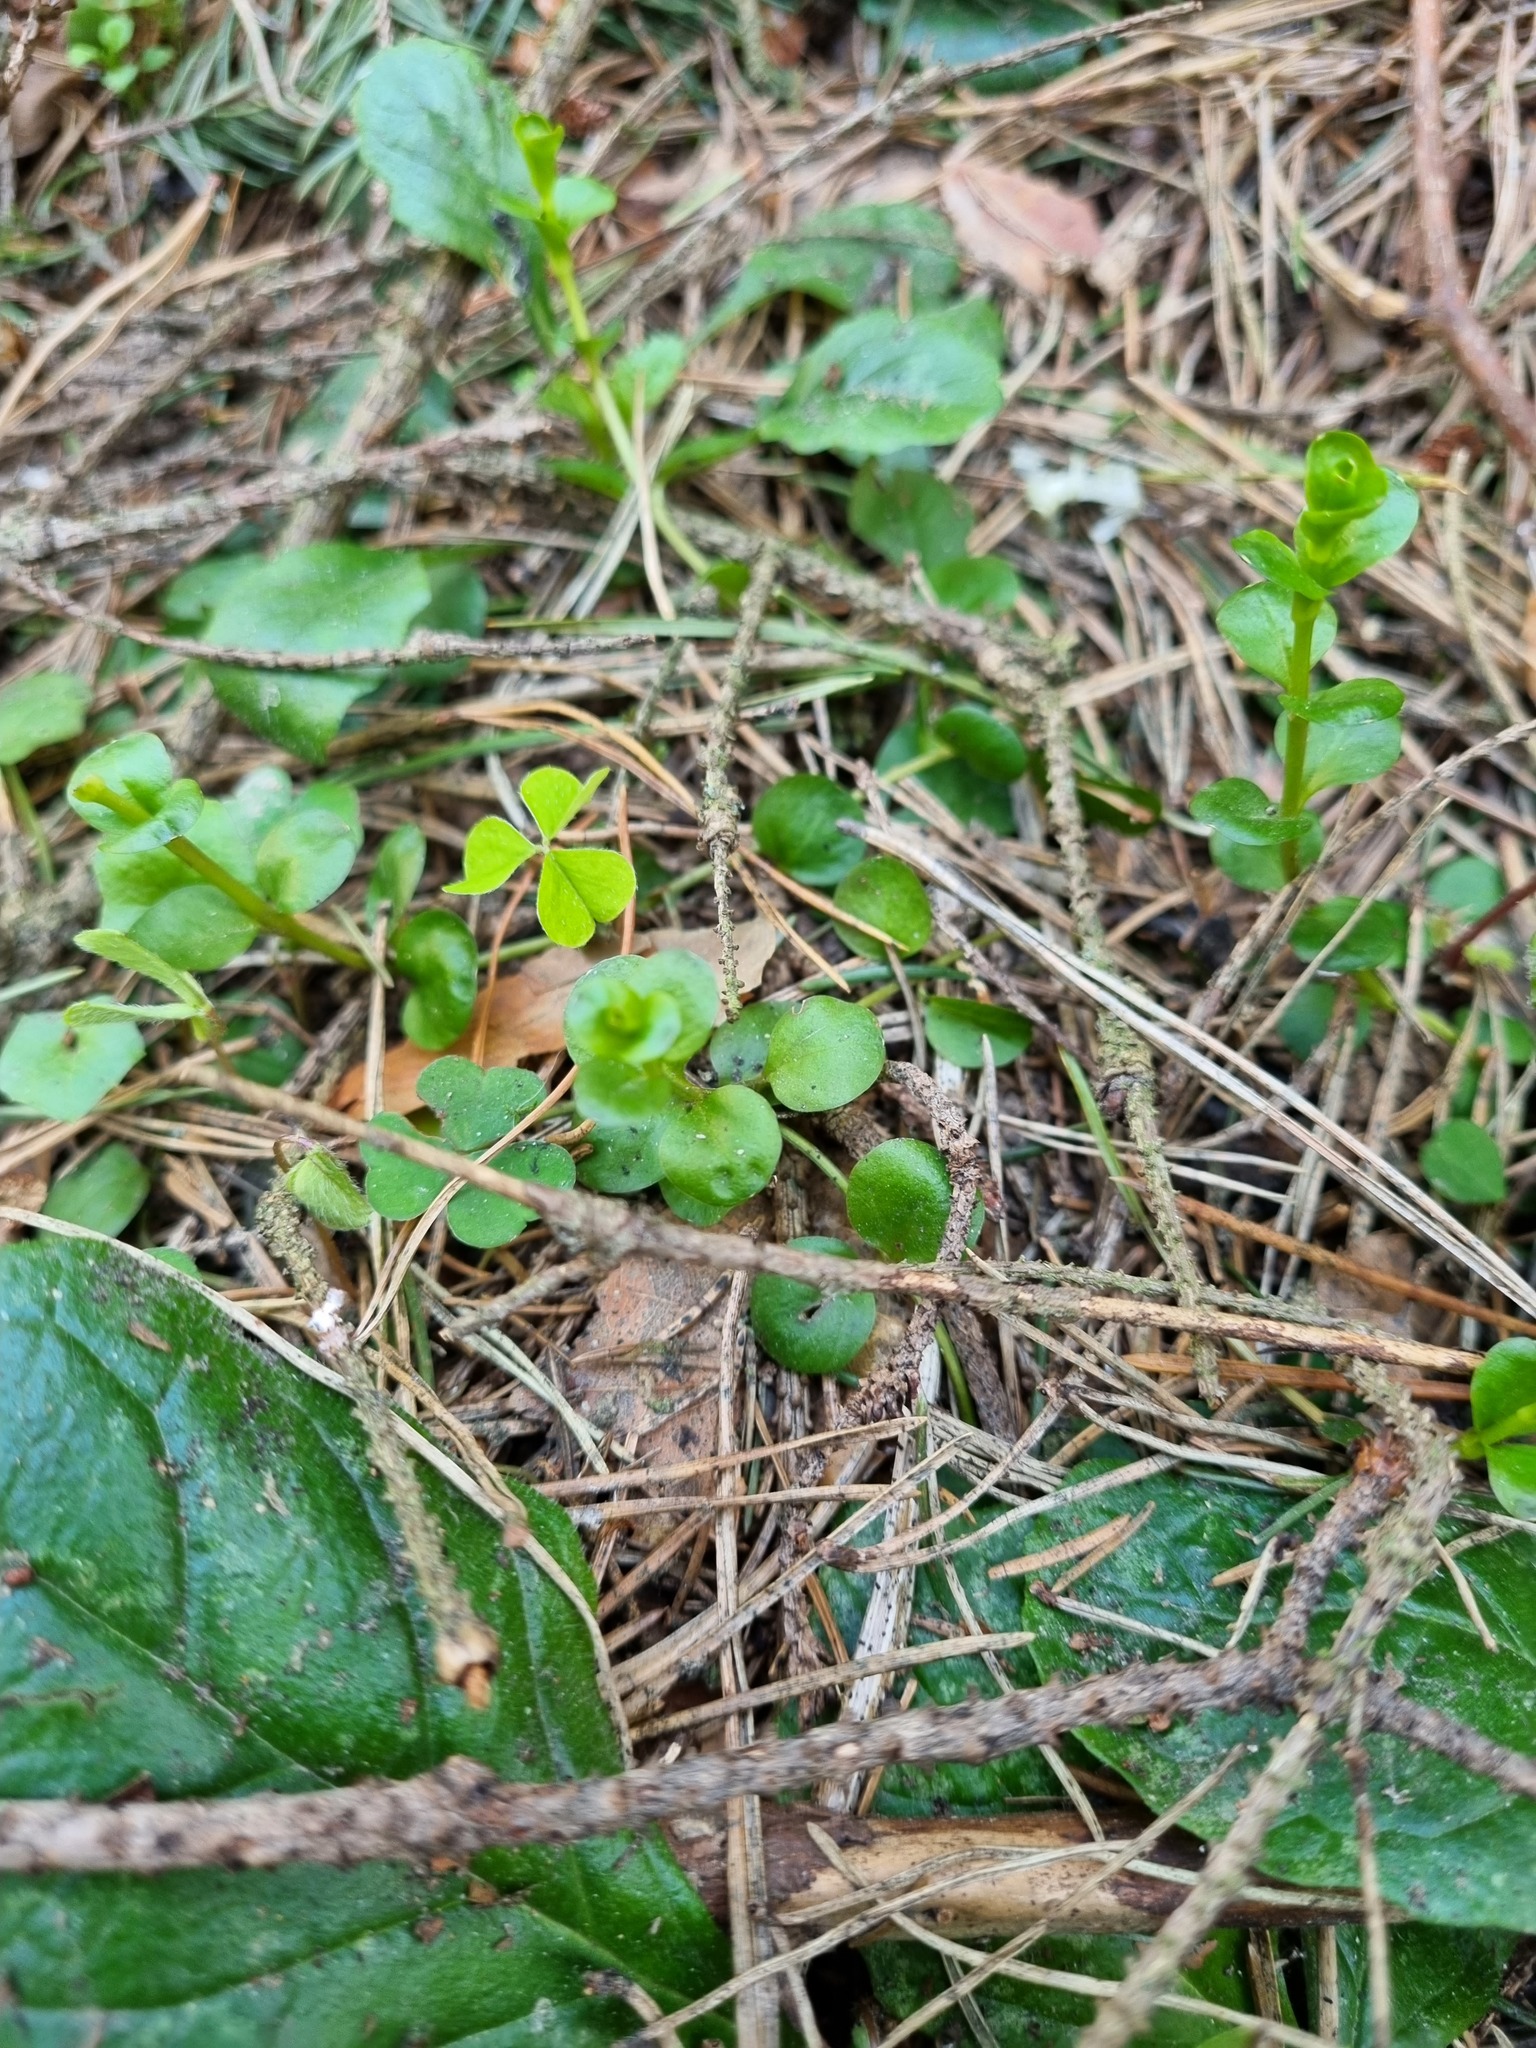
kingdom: Plantae
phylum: Tracheophyta
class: Magnoliopsida
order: Ericales
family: Primulaceae
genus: Lysimachia
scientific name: Lysimachia nummularia
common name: Moneywort
